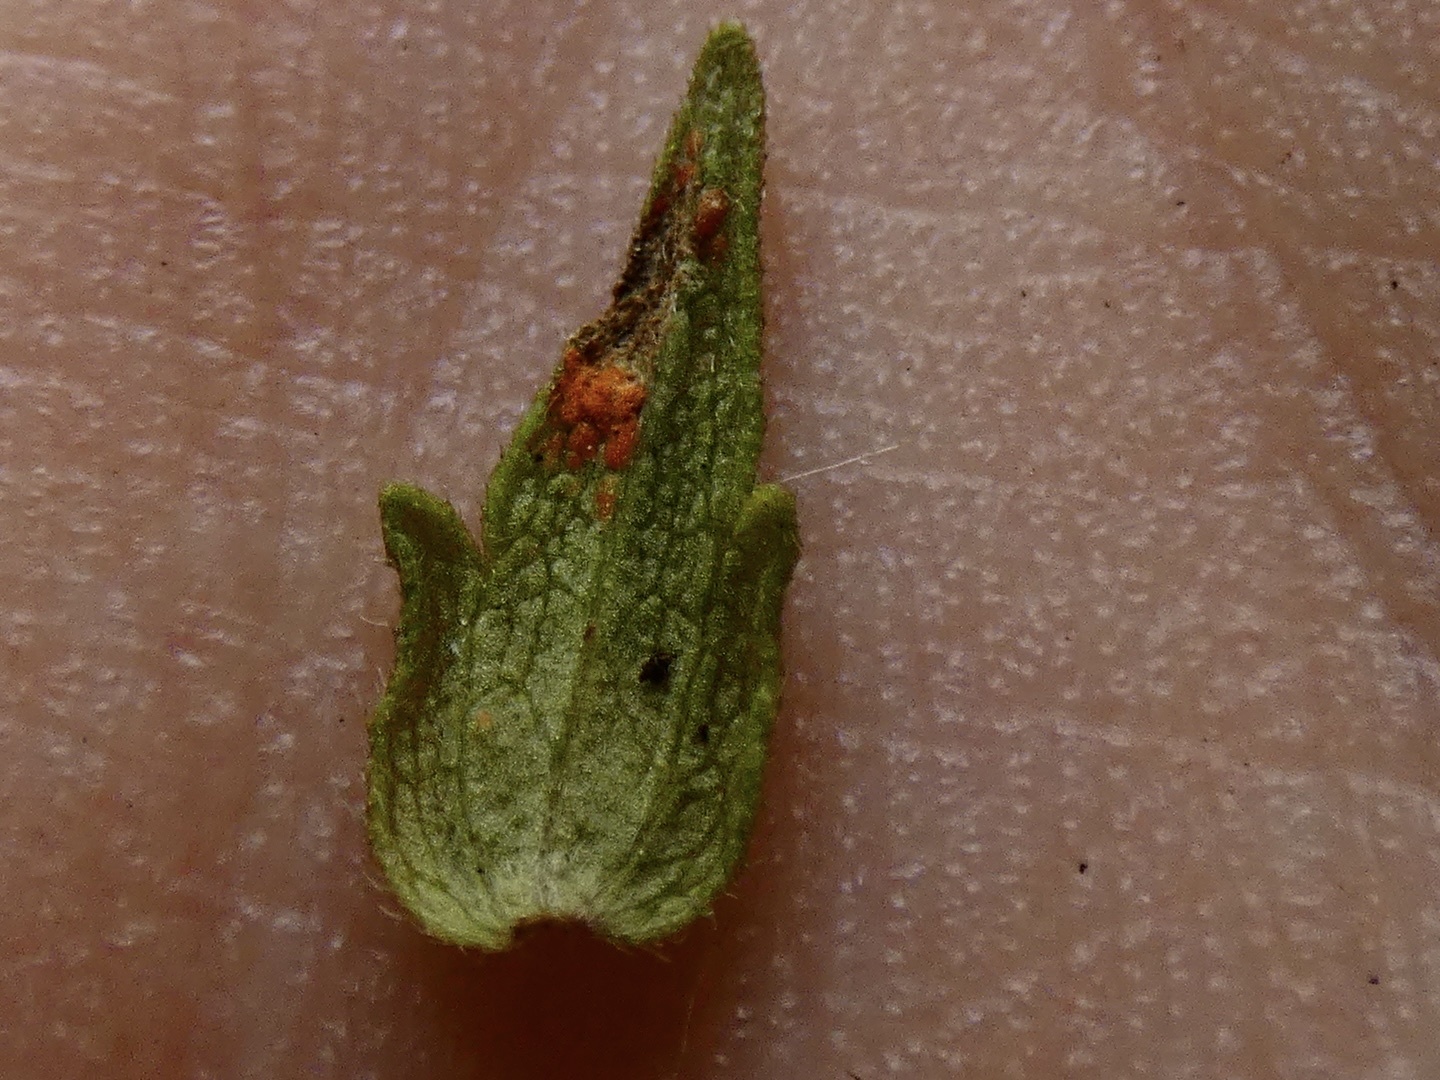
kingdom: Fungi
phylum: Basidiomycota
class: Pucciniomycetes
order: Pucciniales
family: Coleosporiaceae
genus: Coleosporium
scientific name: Coleosporium euphrasiae
